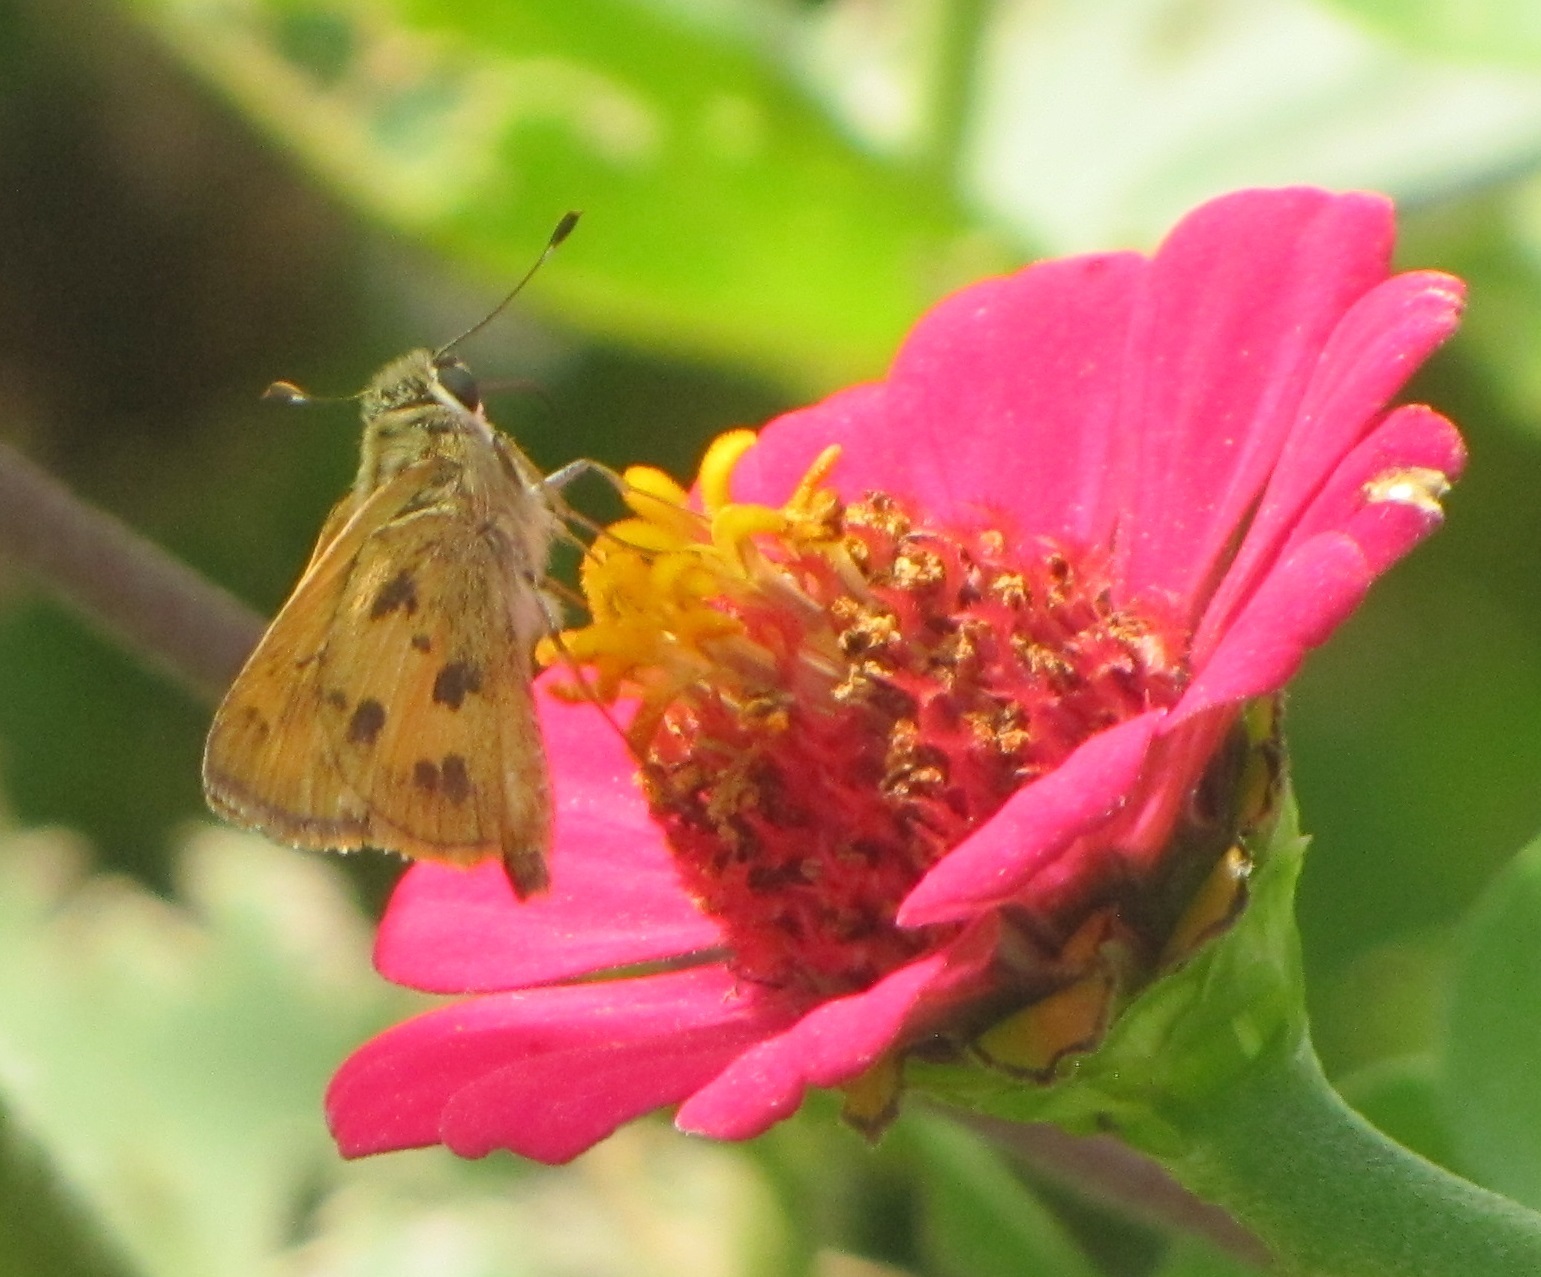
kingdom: Animalia
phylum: Arthropoda
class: Insecta
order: Lepidoptera
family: Hesperiidae
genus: Polites
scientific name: Polites vibex
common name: Whirlabout
